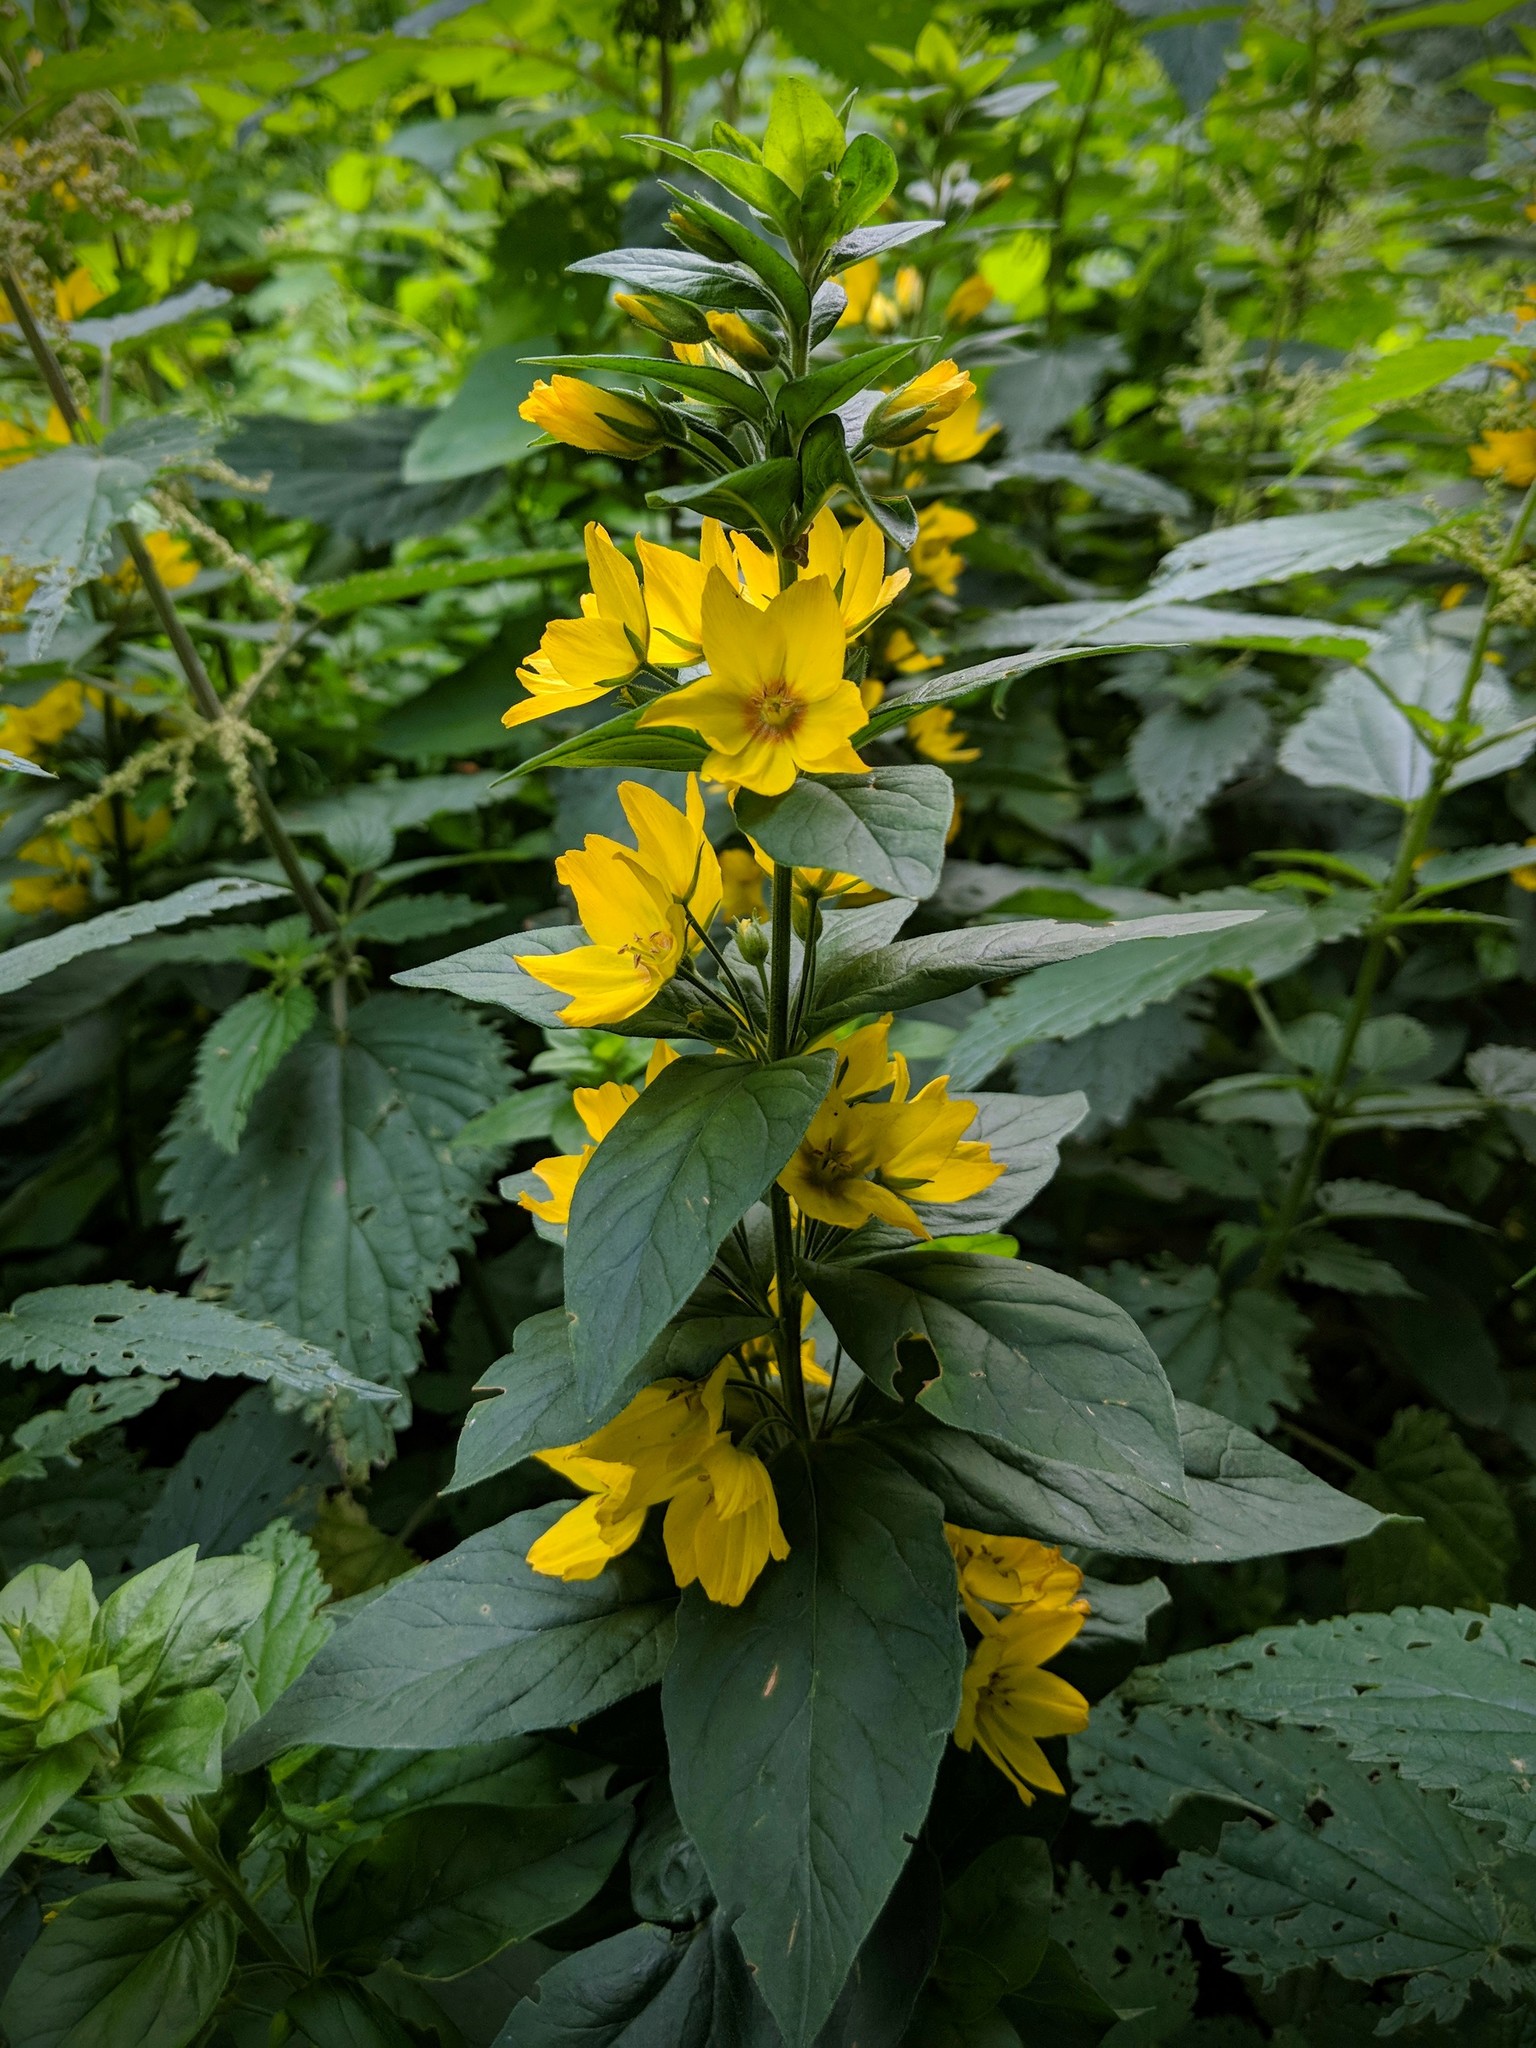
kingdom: Plantae
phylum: Tracheophyta
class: Magnoliopsida
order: Ericales
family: Primulaceae
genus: Lysimachia
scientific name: Lysimachia punctata
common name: Dotted loosestrife
